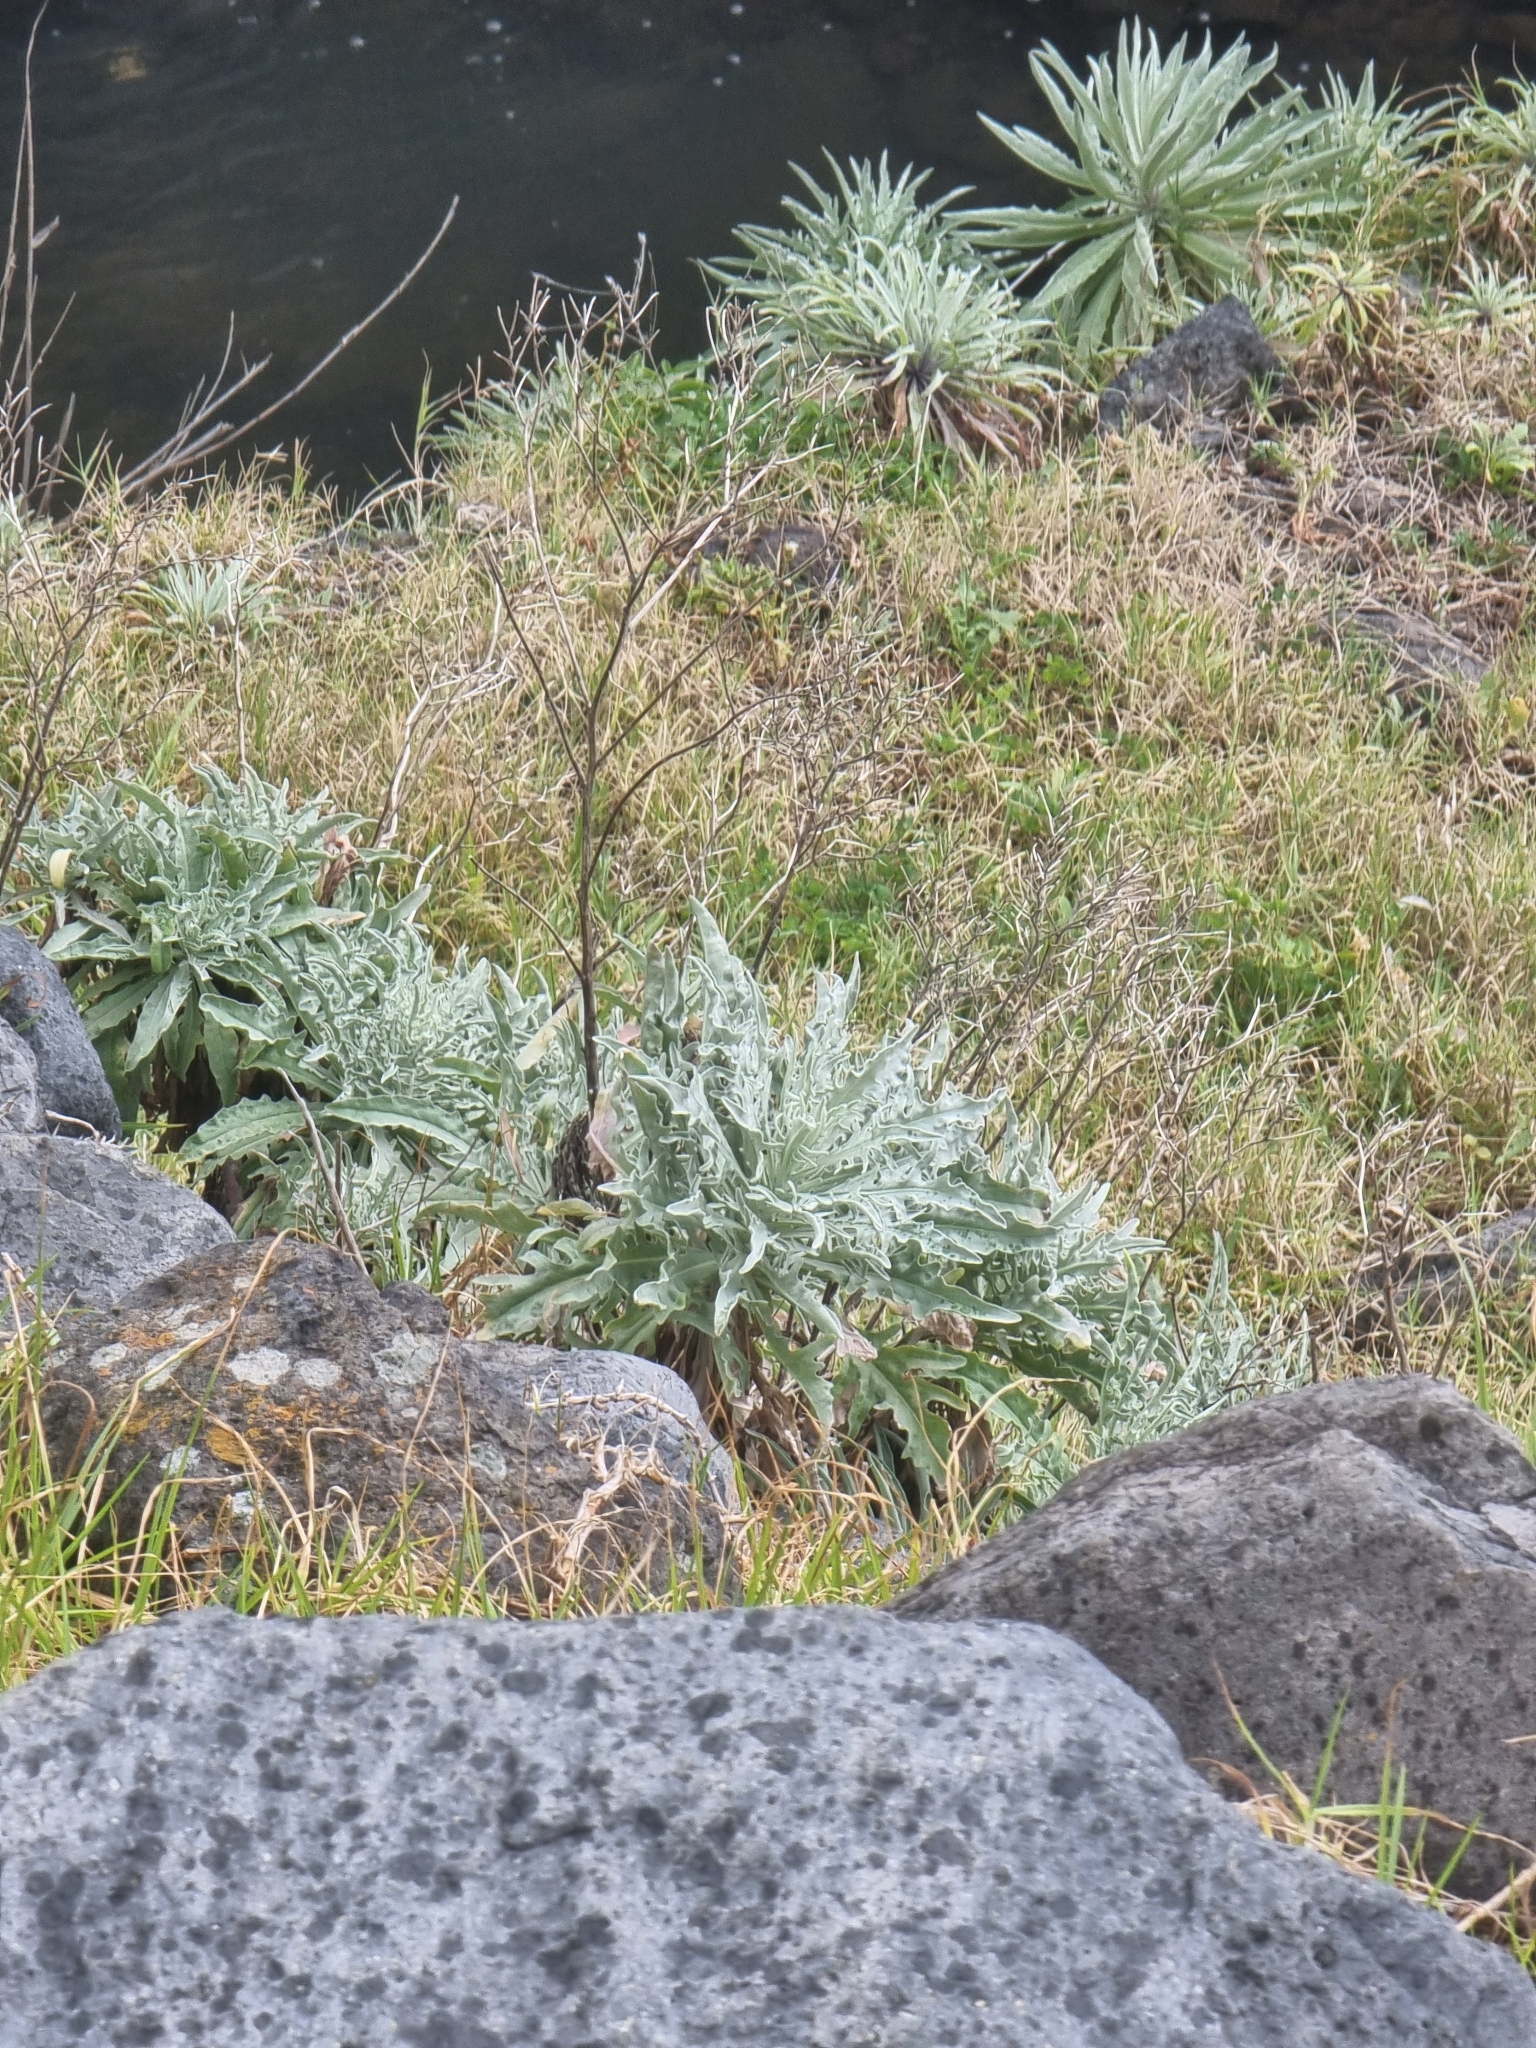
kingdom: Plantae
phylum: Tracheophyta
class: Magnoliopsida
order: Asterales
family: Asteraceae
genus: Andryala
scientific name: Andryala glandulosa
